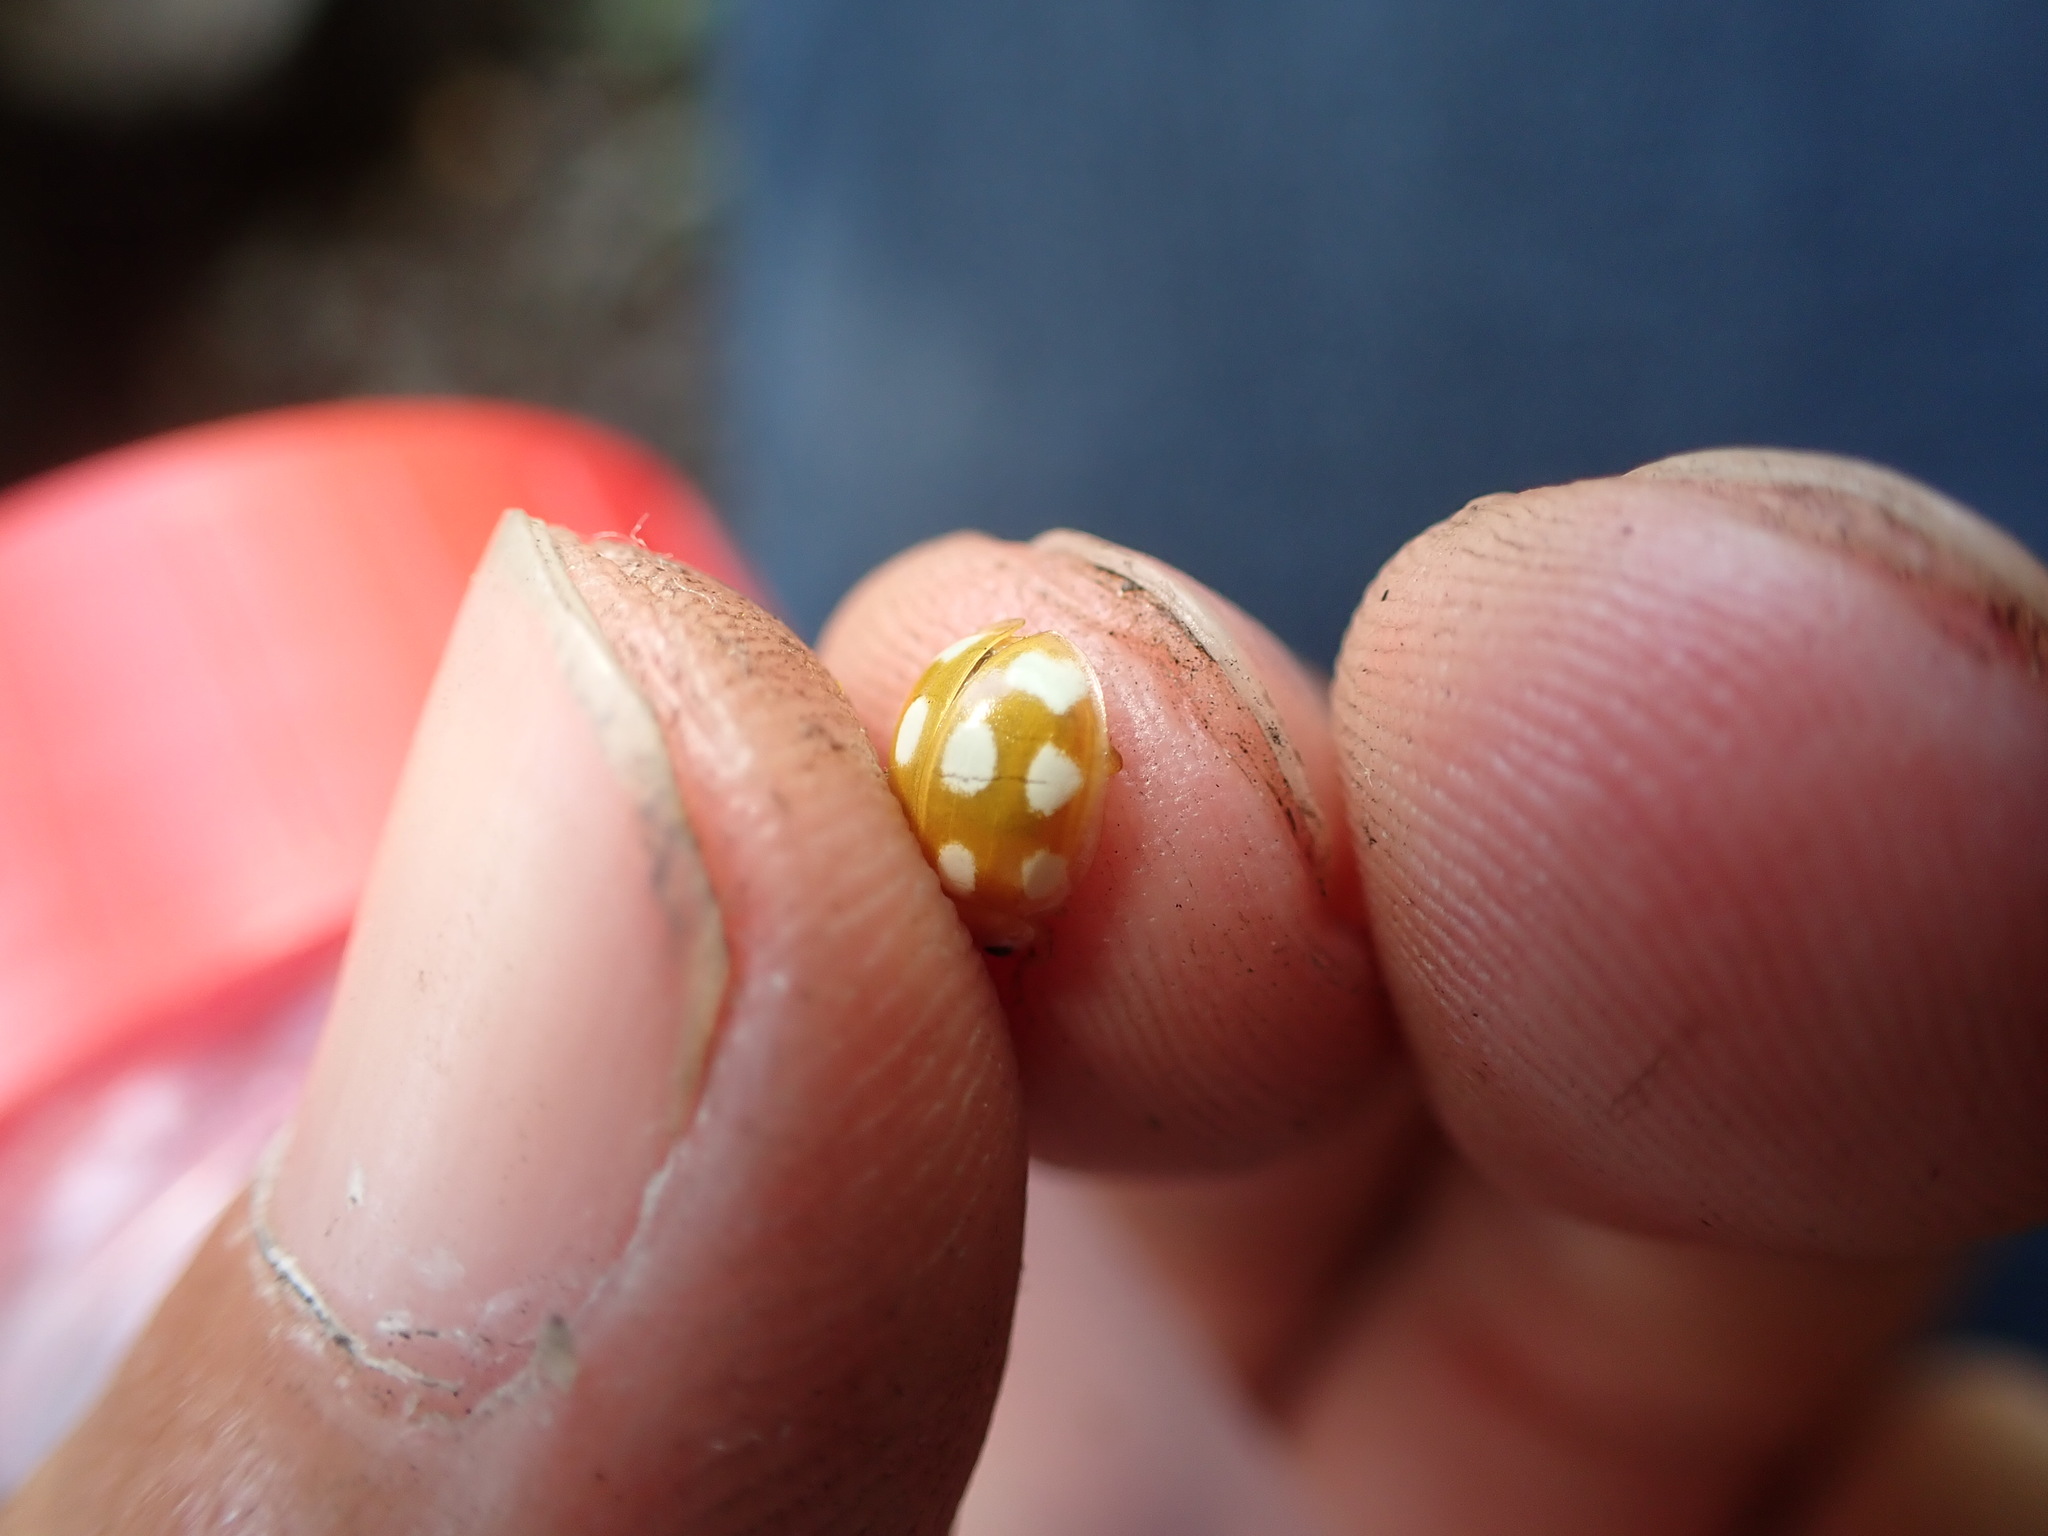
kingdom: Animalia
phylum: Arthropoda
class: Insecta
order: Coleoptera
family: Coccinellidae
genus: Calvia
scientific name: Calvia decemguttata
